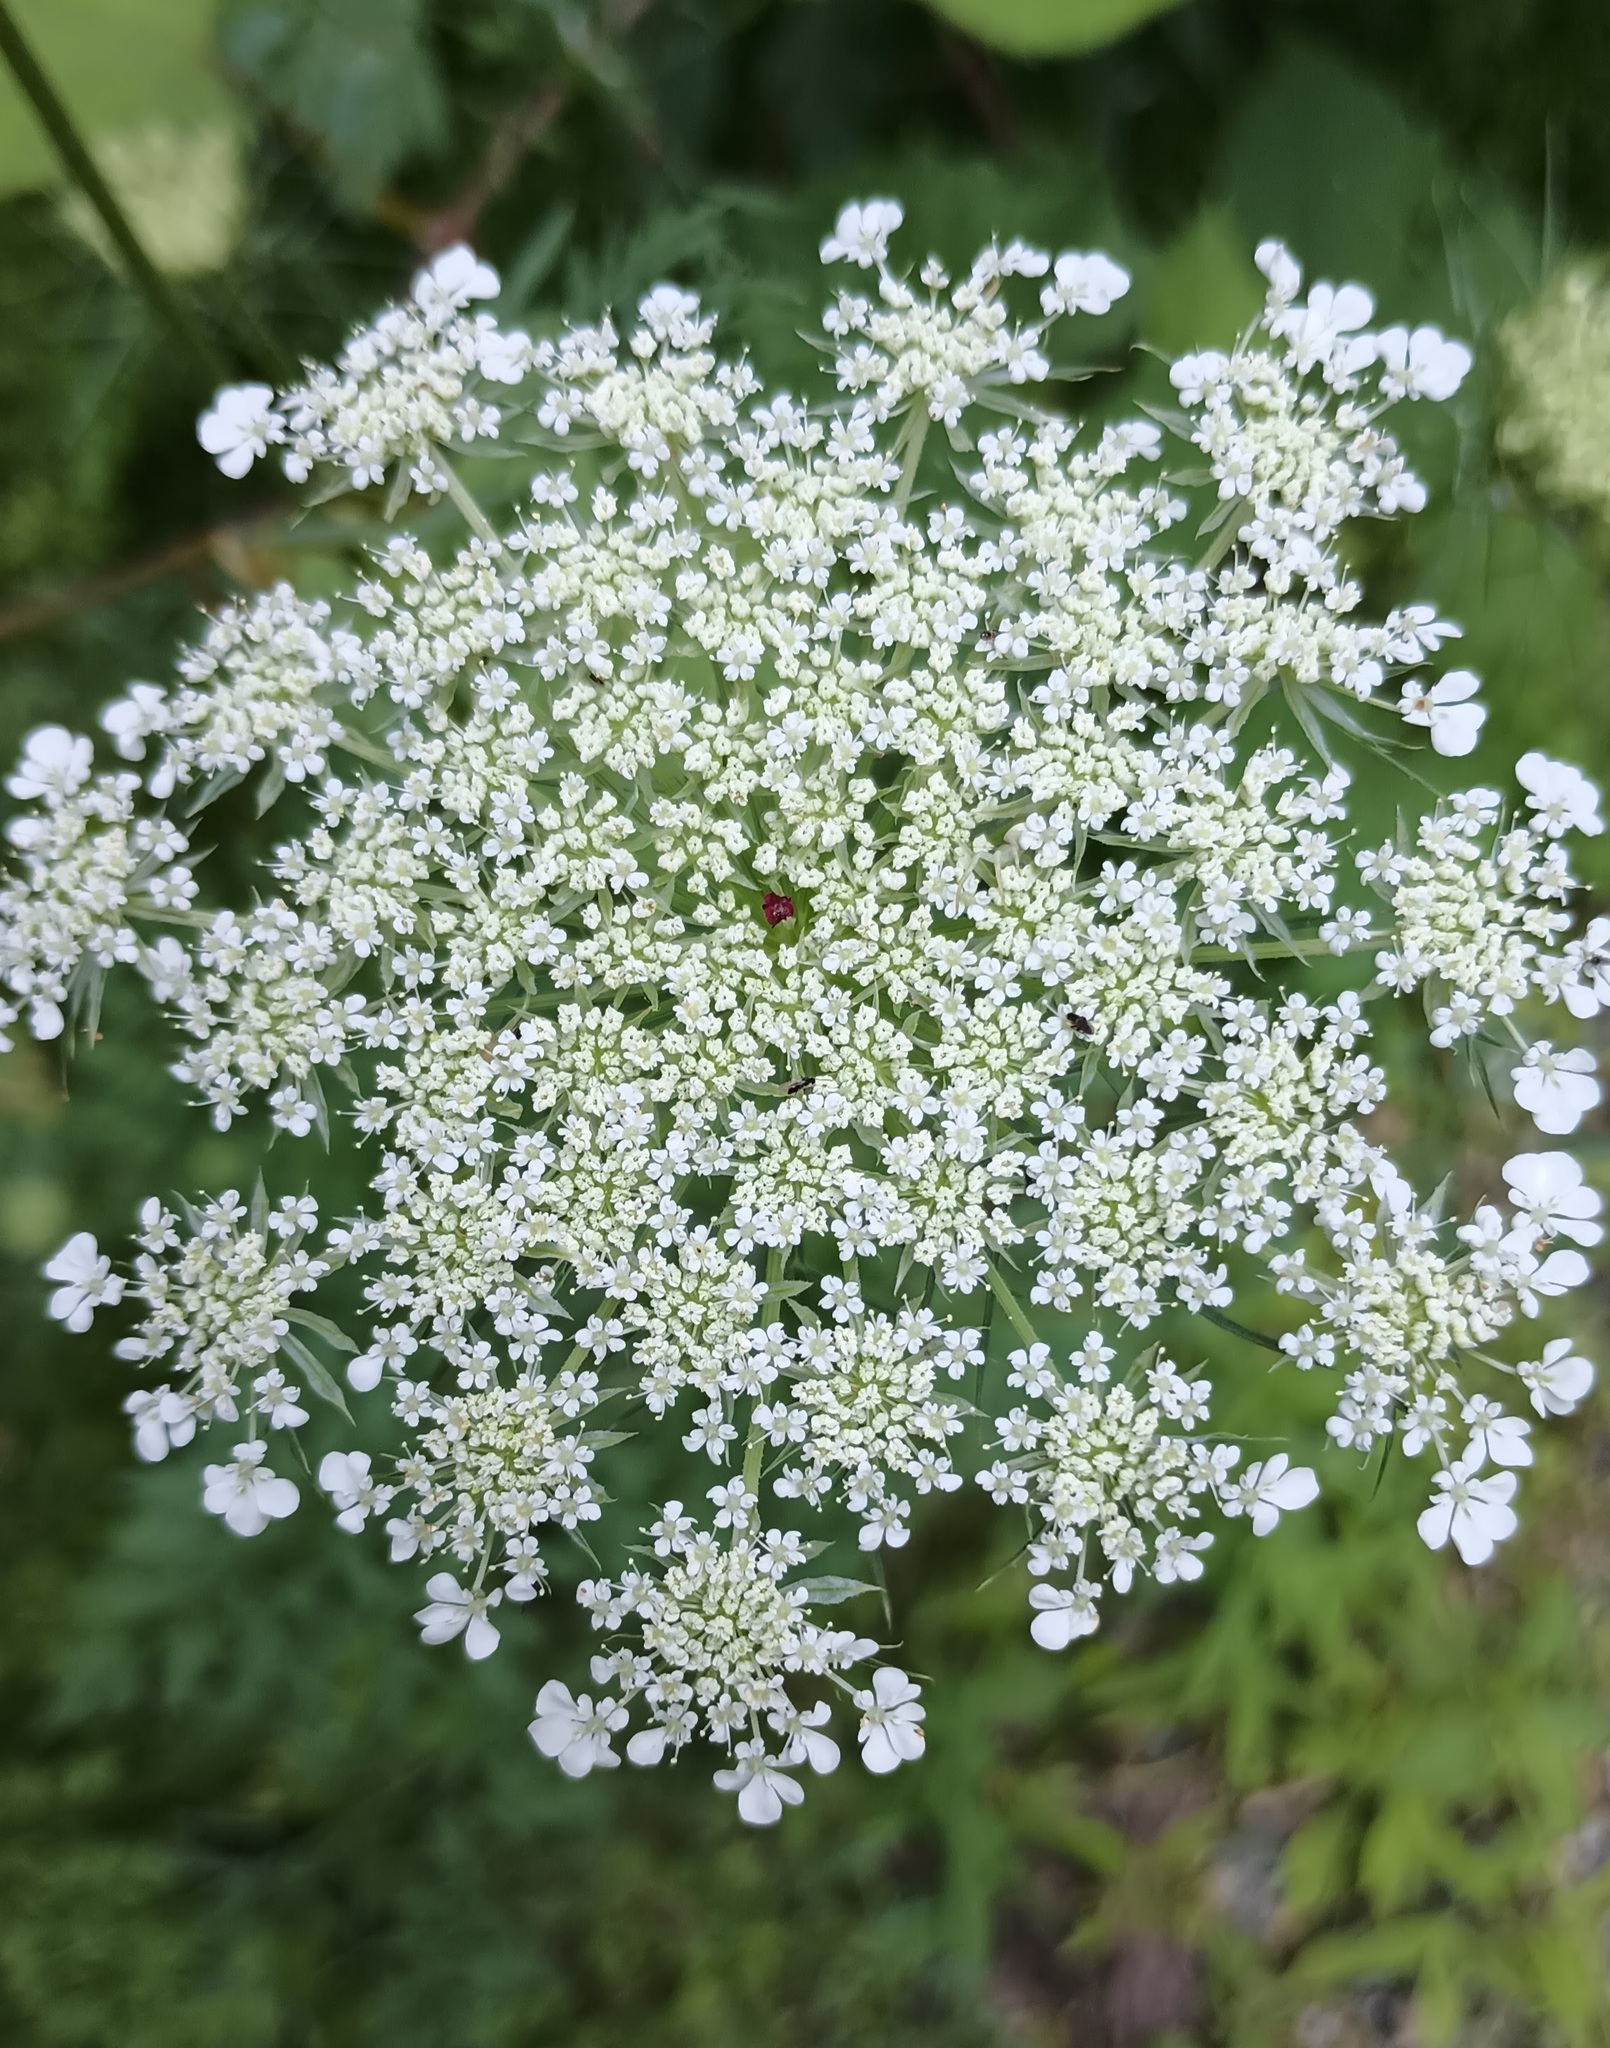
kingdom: Plantae
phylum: Tracheophyta
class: Magnoliopsida
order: Apiales
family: Apiaceae
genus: Daucus
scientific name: Daucus carota
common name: Wild carrot
